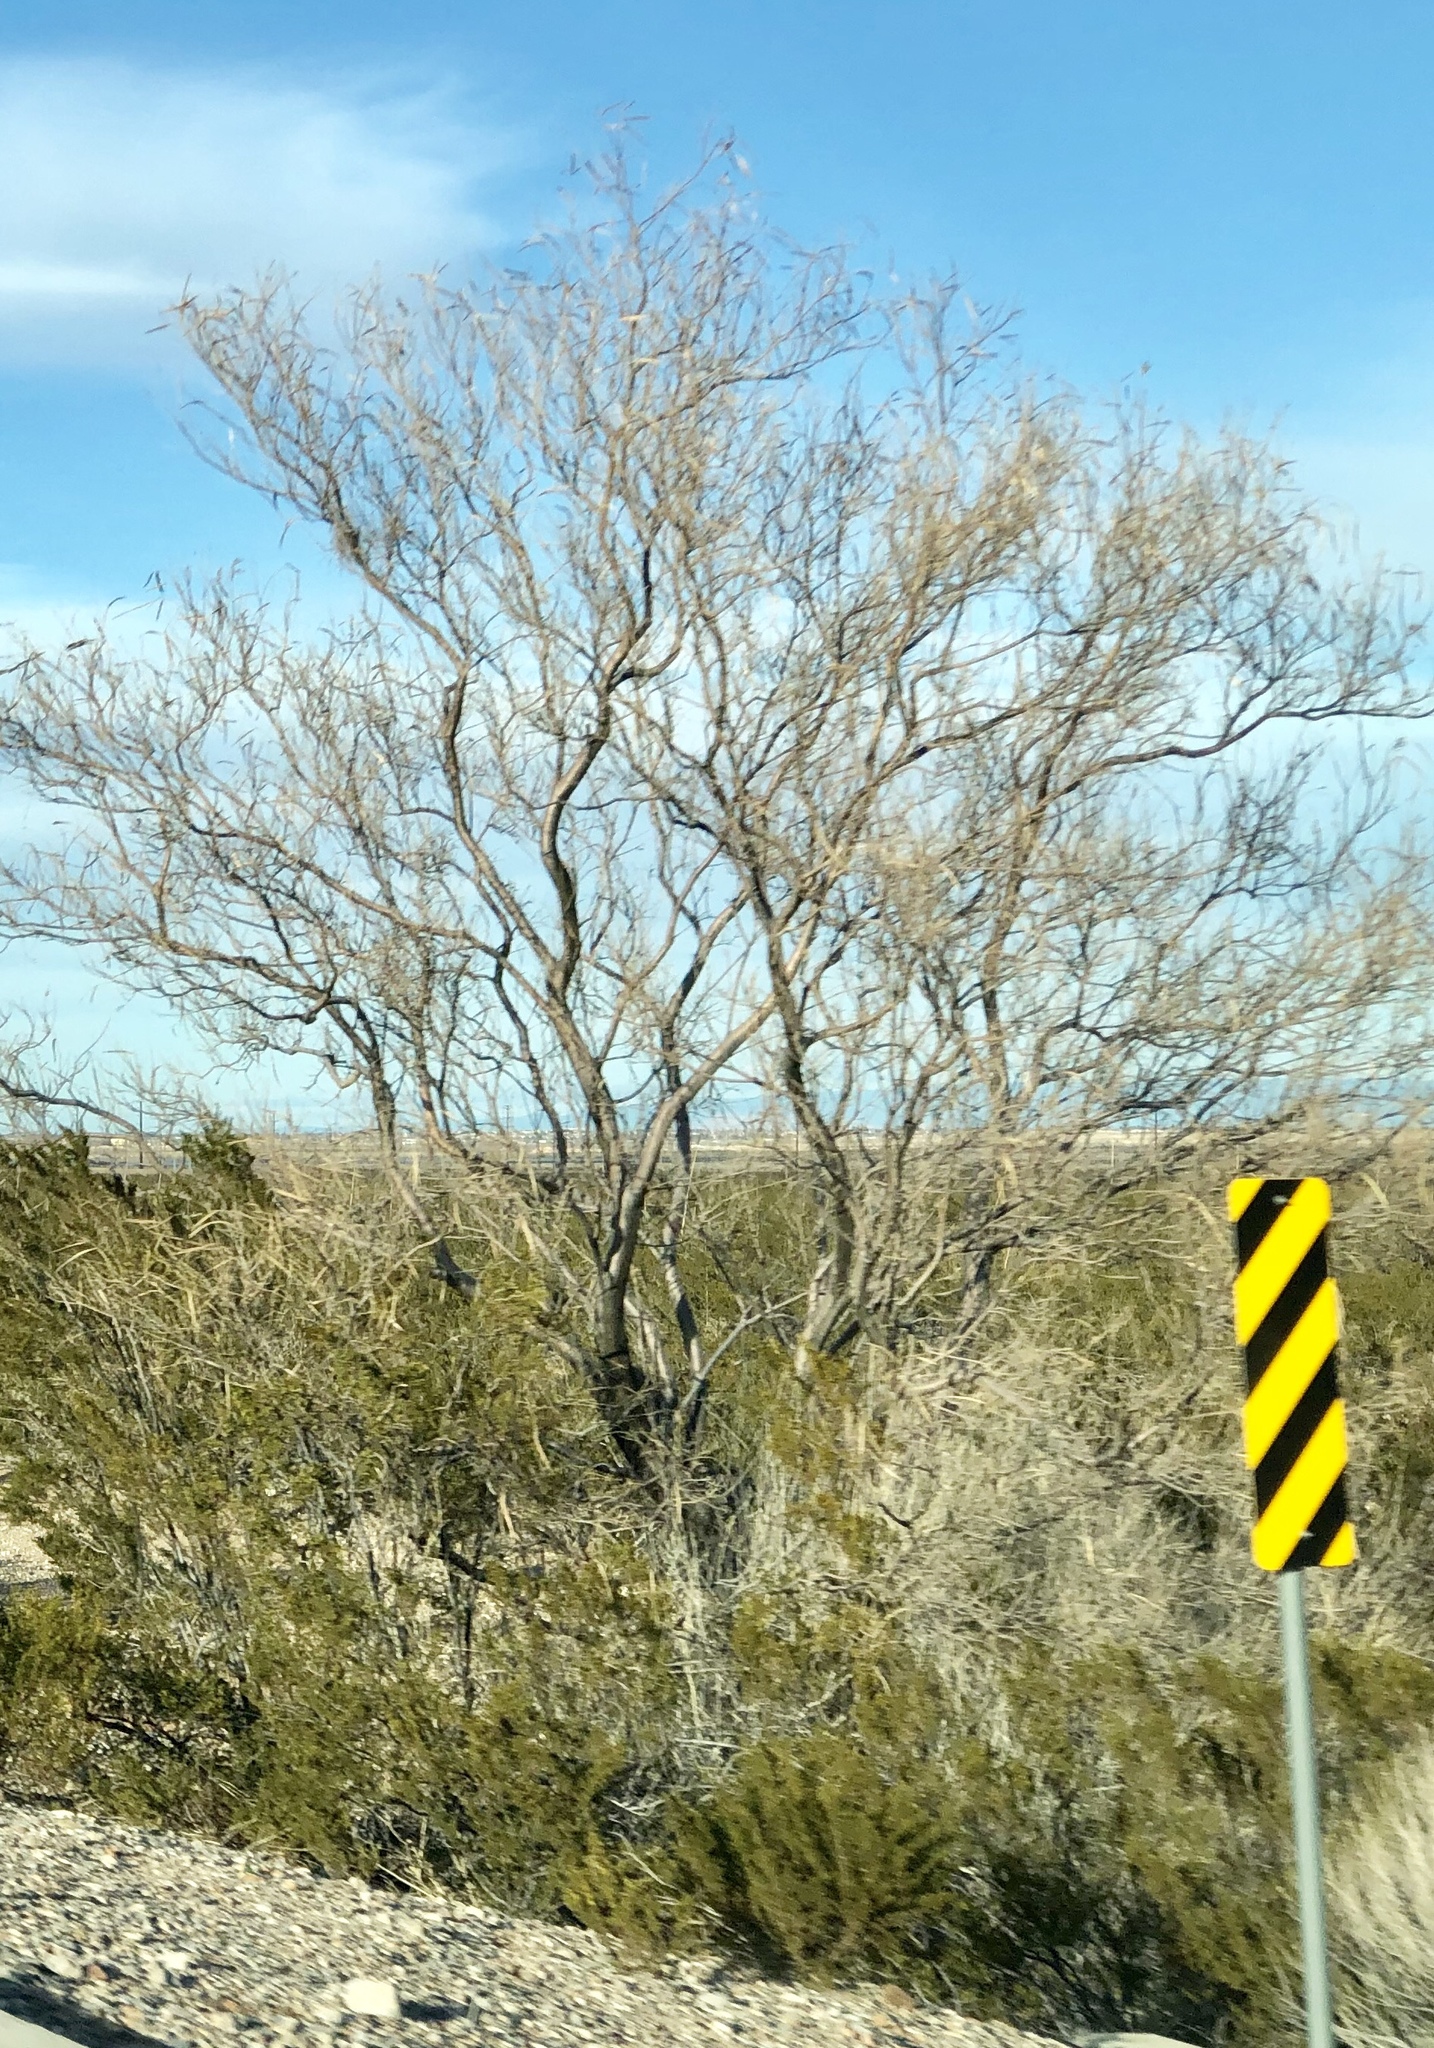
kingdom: Plantae
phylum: Tracheophyta
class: Magnoliopsida
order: Lamiales
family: Bignoniaceae
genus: Chilopsis
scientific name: Chilopsis linearis
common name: Desert-willow
